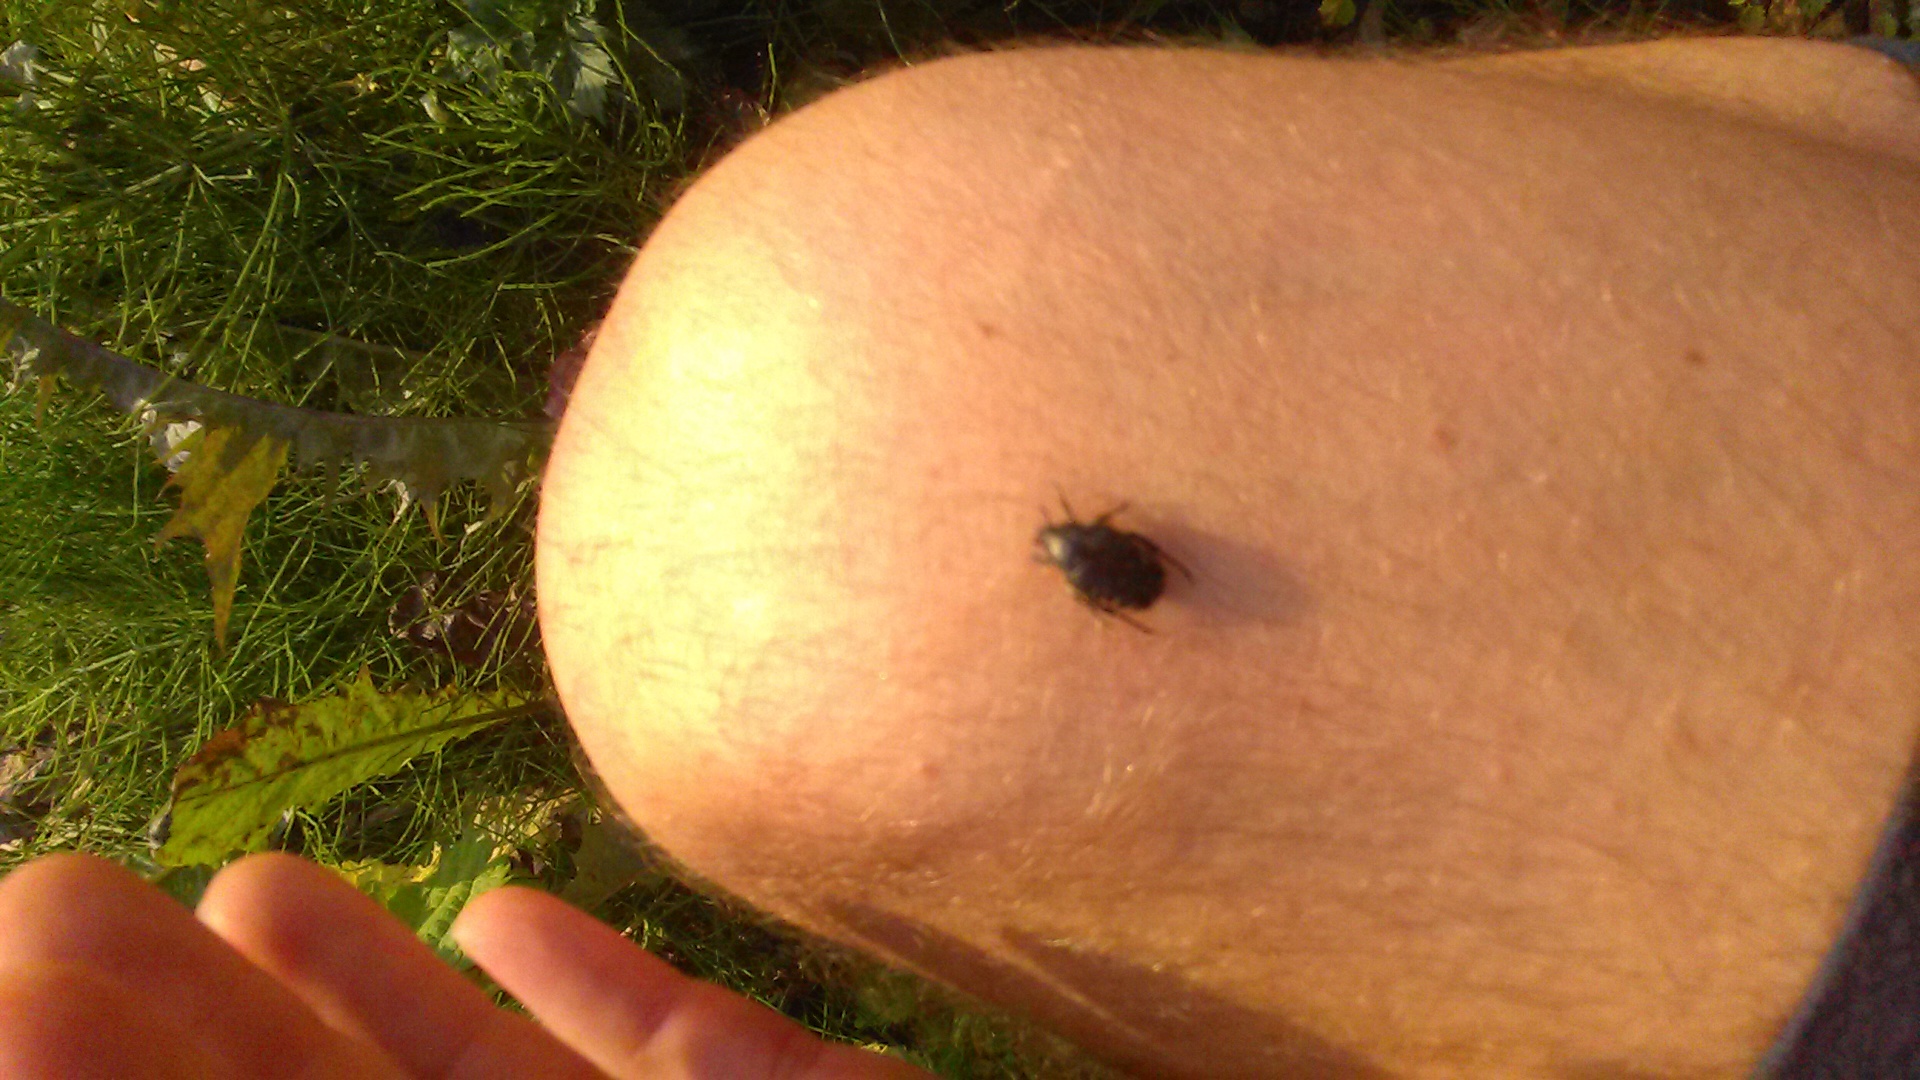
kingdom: Animalia
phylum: Arthropoda
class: Insecta
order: Coleoptera
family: Scarabaeidae
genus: Oxythyrea
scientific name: Oxythyrea funesta
